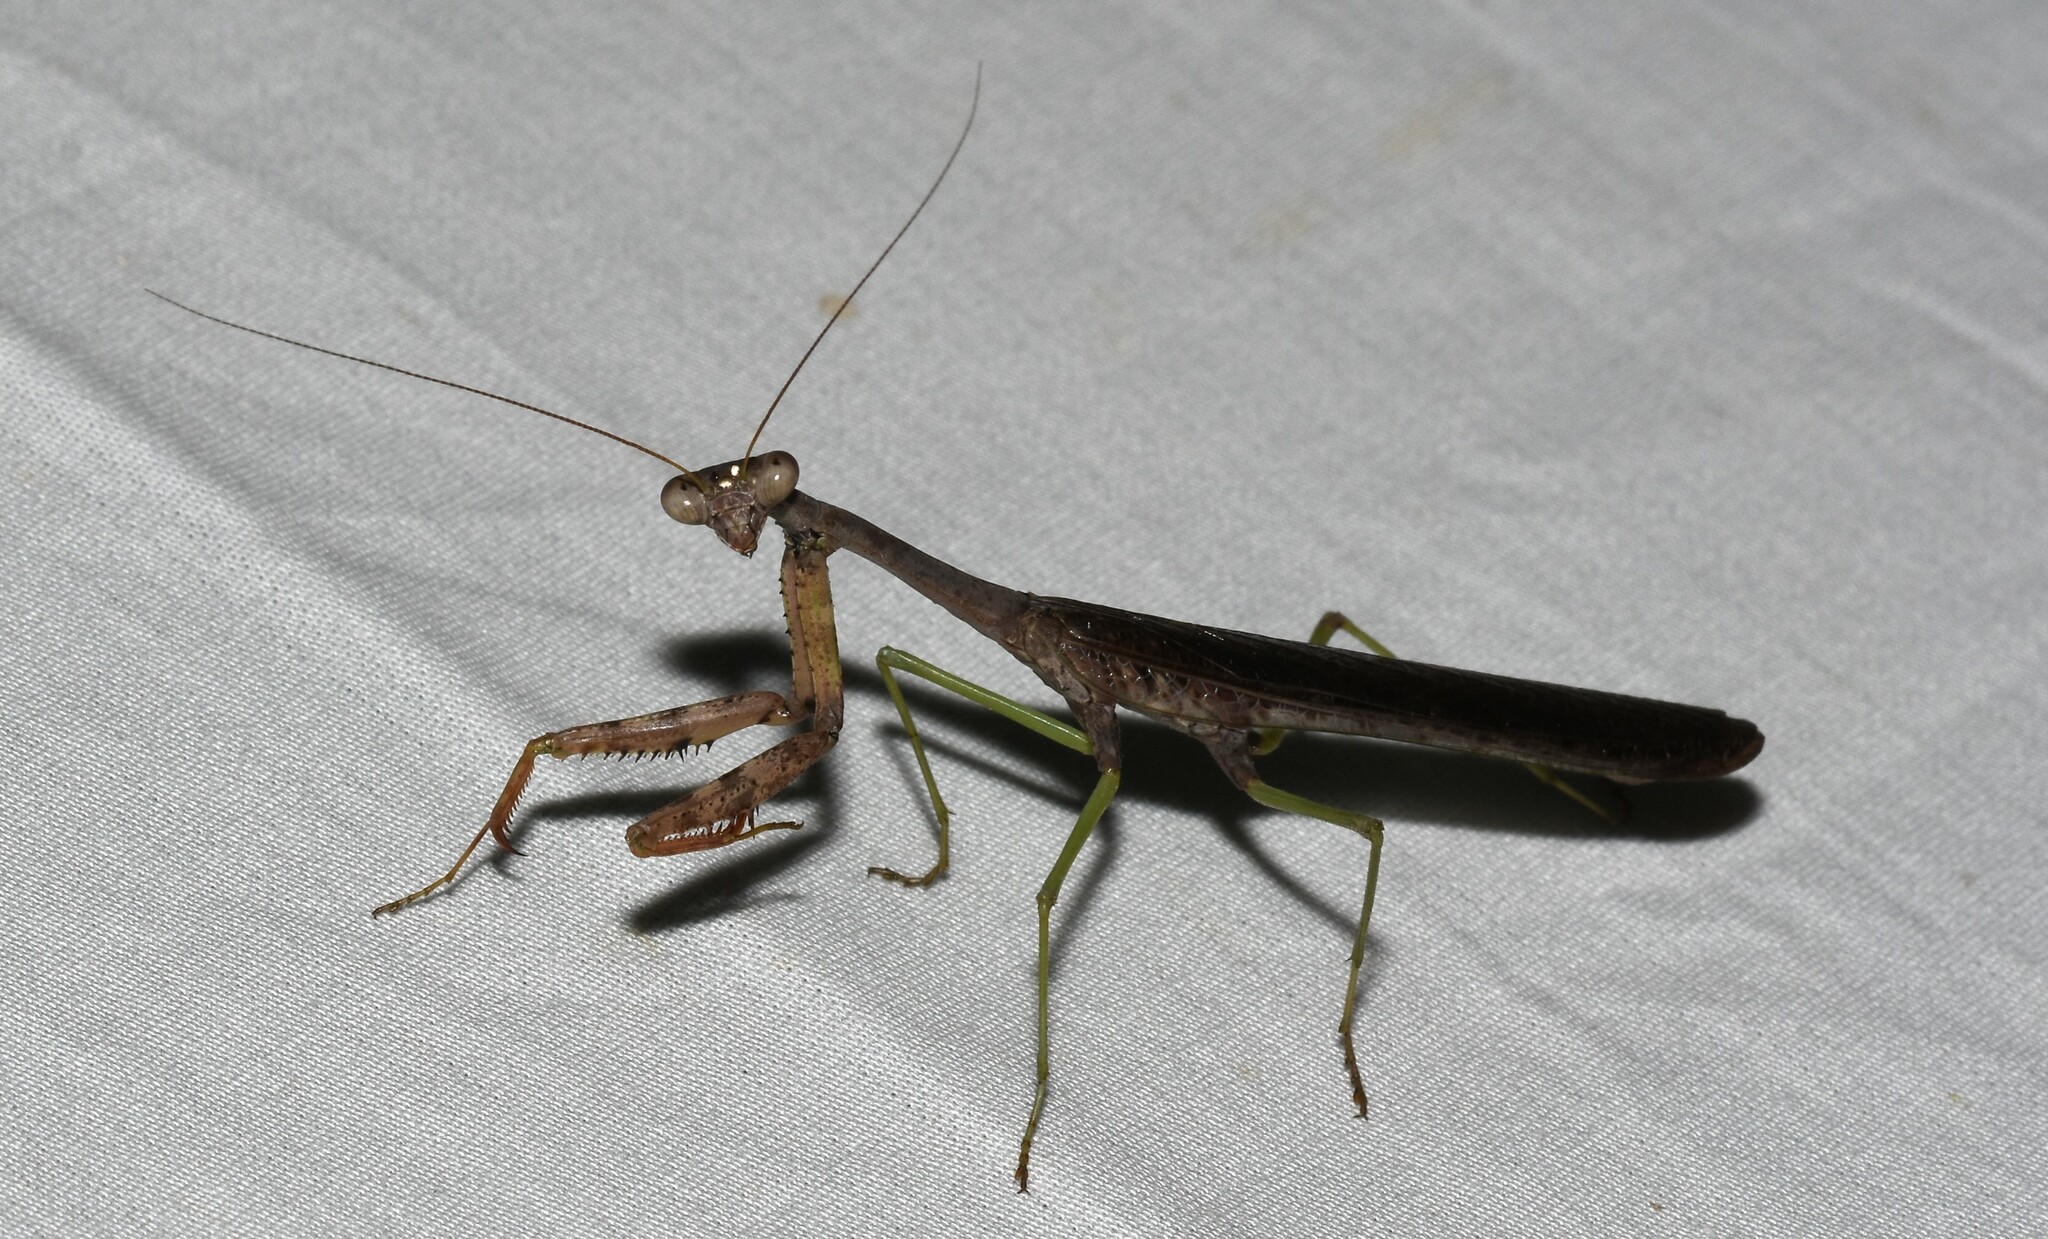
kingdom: Animalia
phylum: Arthropoda
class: Insecta
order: Mantodea
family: Mantidae
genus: Stagmomantis
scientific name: Stagmomantis carolina
